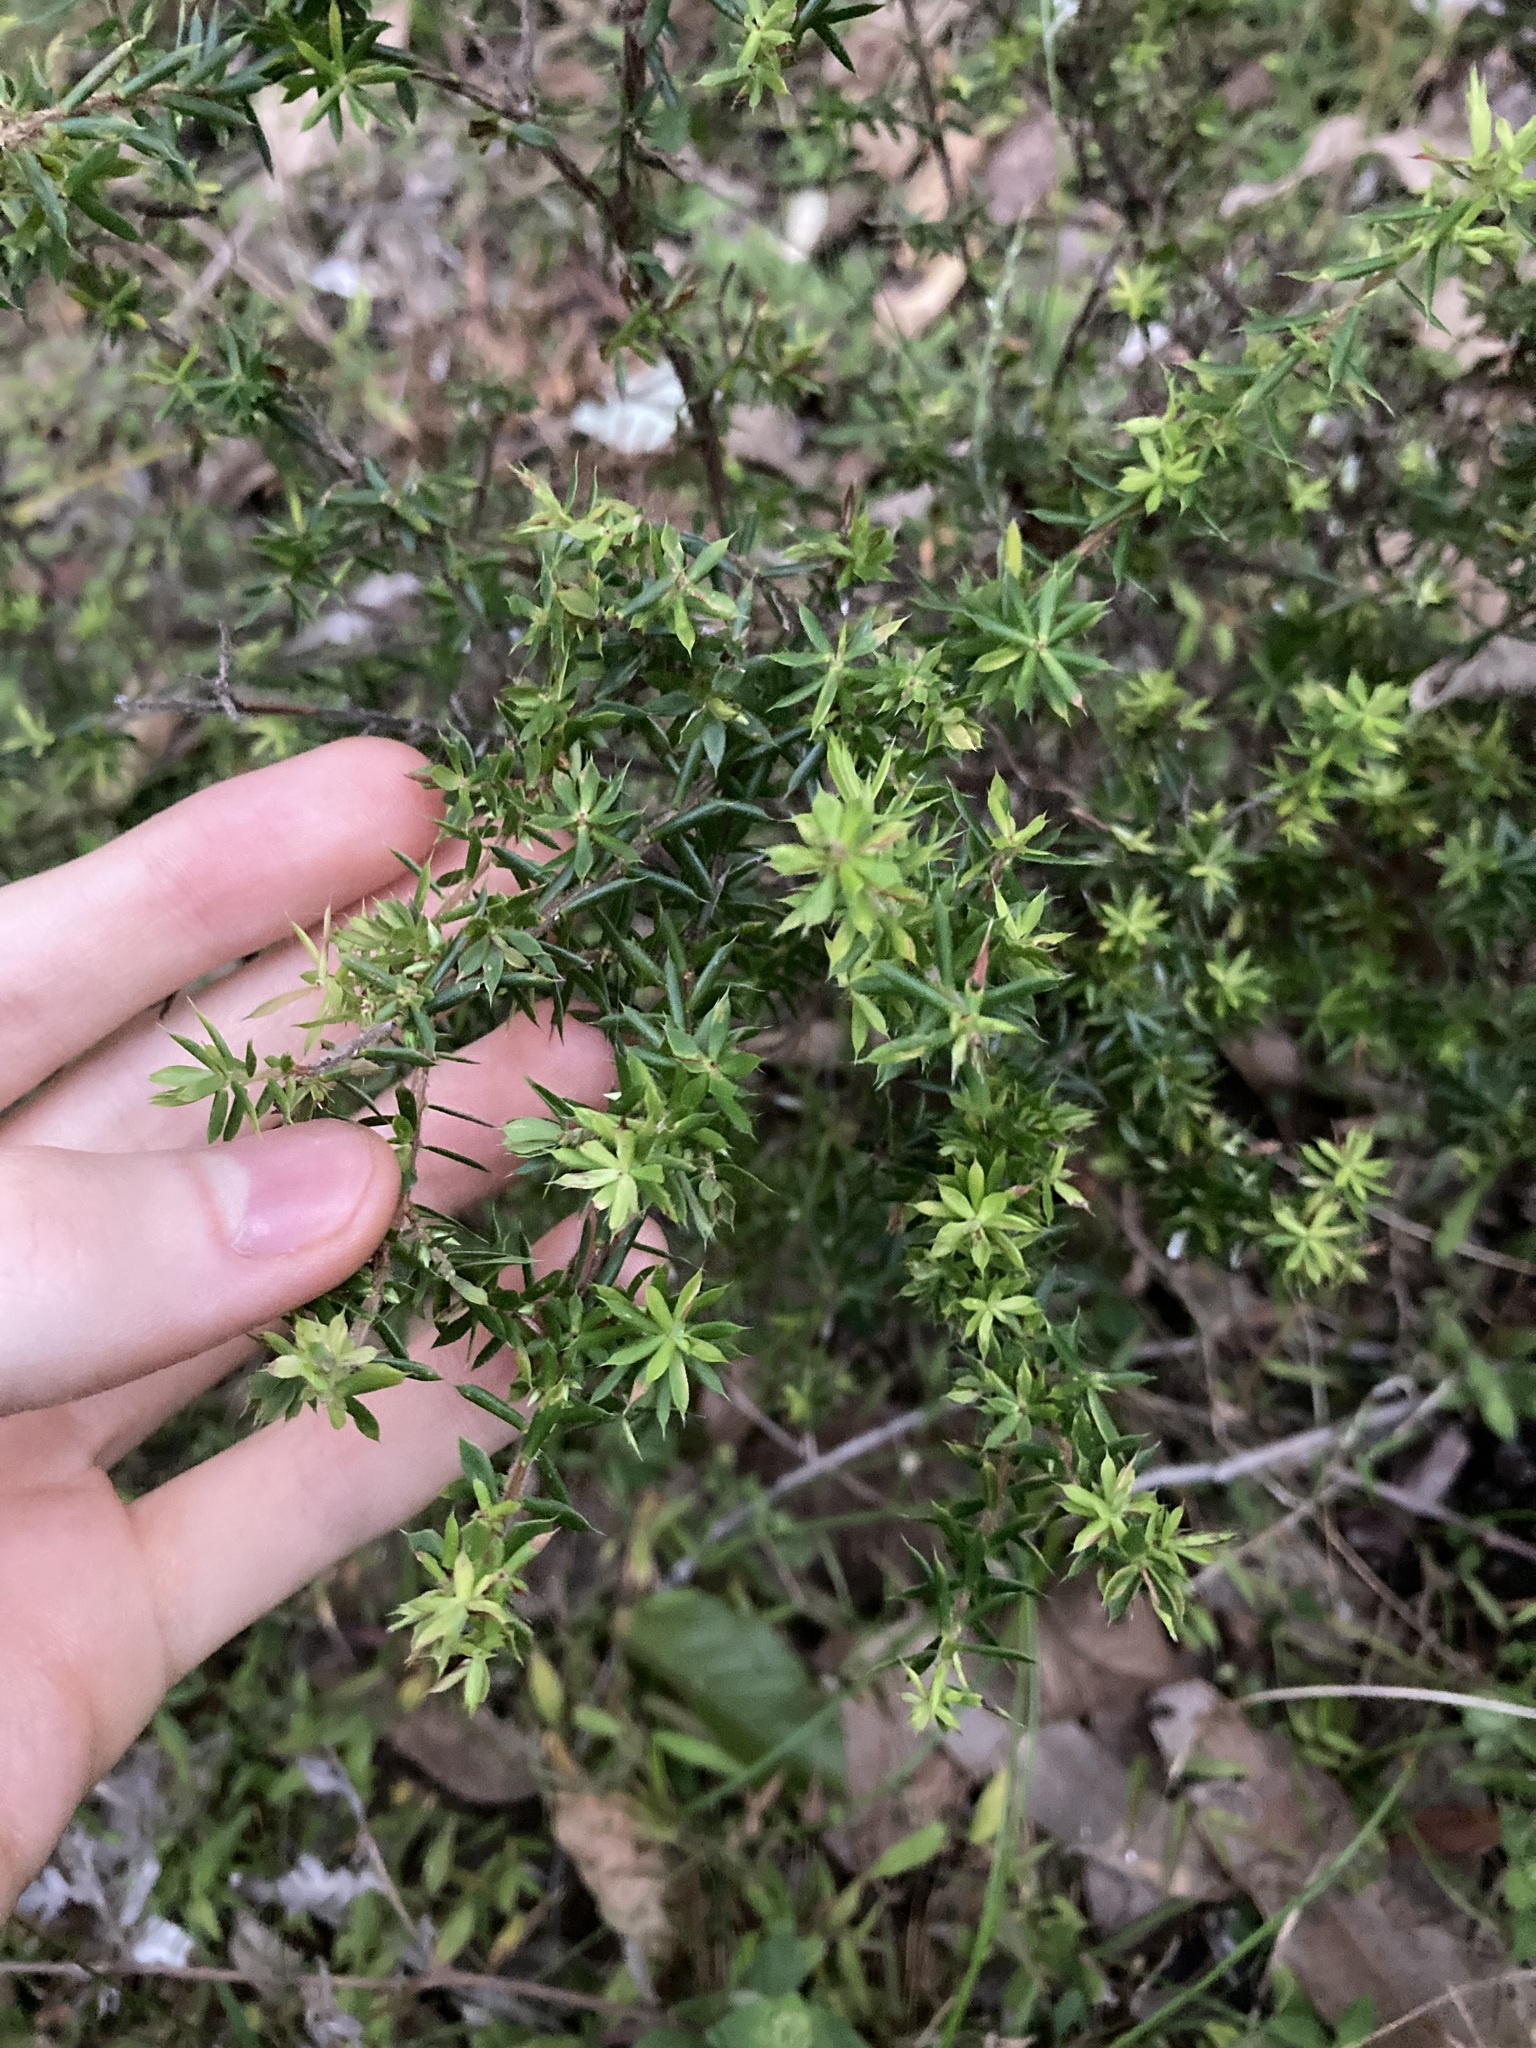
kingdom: Plantae
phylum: Tracheophyta
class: Magnoliopsida
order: Ericales
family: Ericaceae
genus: Styphelia
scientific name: Styphelia sieberi
